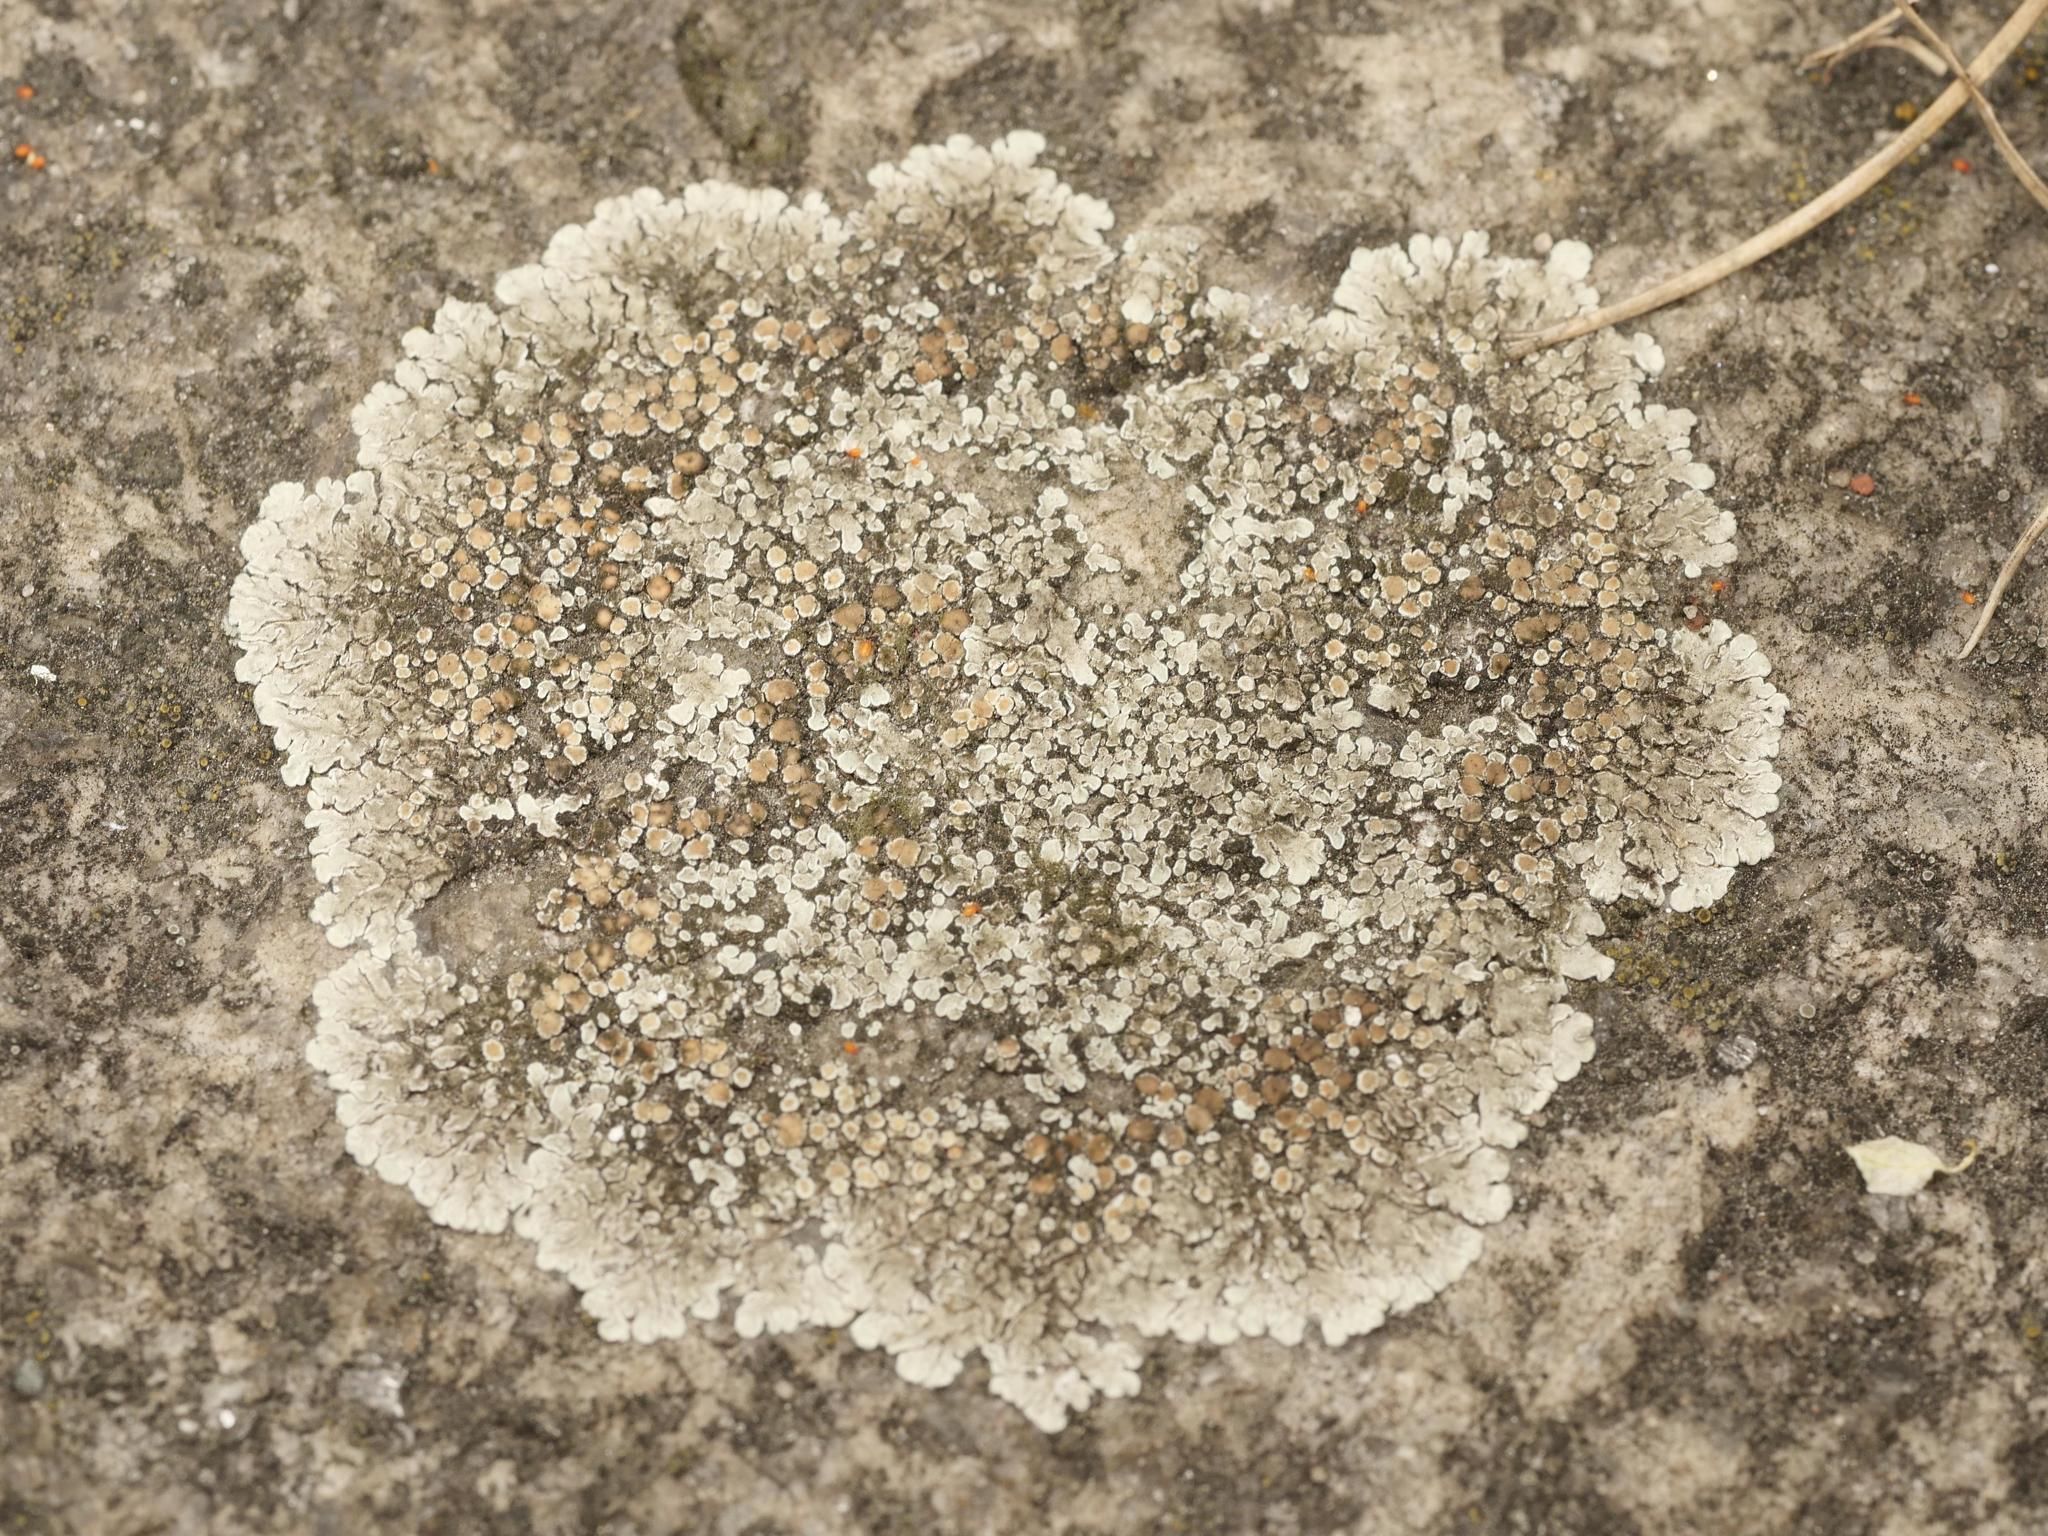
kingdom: Fungi
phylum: Ascomycota
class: Lecanoromycetes
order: Lecanorales
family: Lecanoraceae
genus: Protoparmeliopsis
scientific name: Protoparmeliopsis muralis
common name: Stonewall rim lichen
